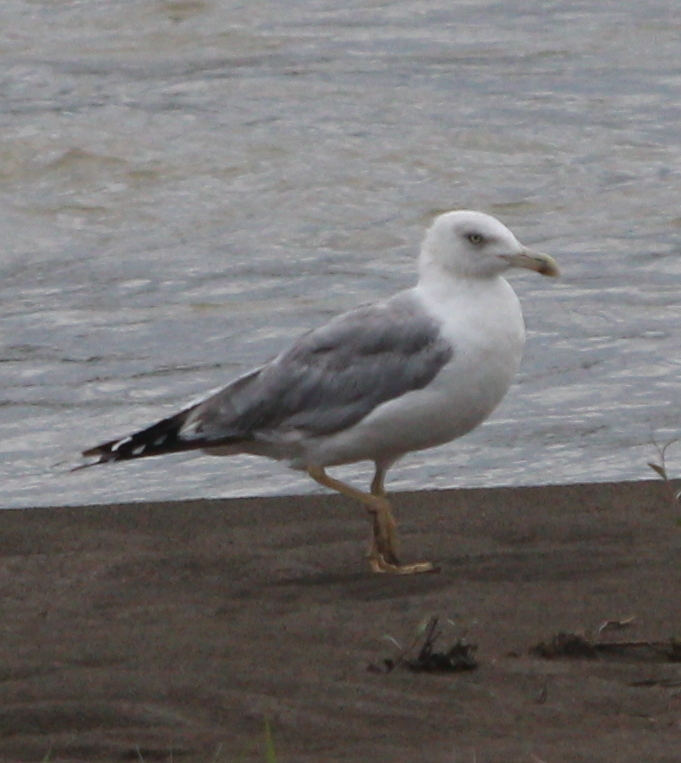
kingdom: Animalia
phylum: Chordata
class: Aves
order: Charadriiformes
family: Laridae
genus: Larus
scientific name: Larus michahellis
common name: Yellow-legged gull
